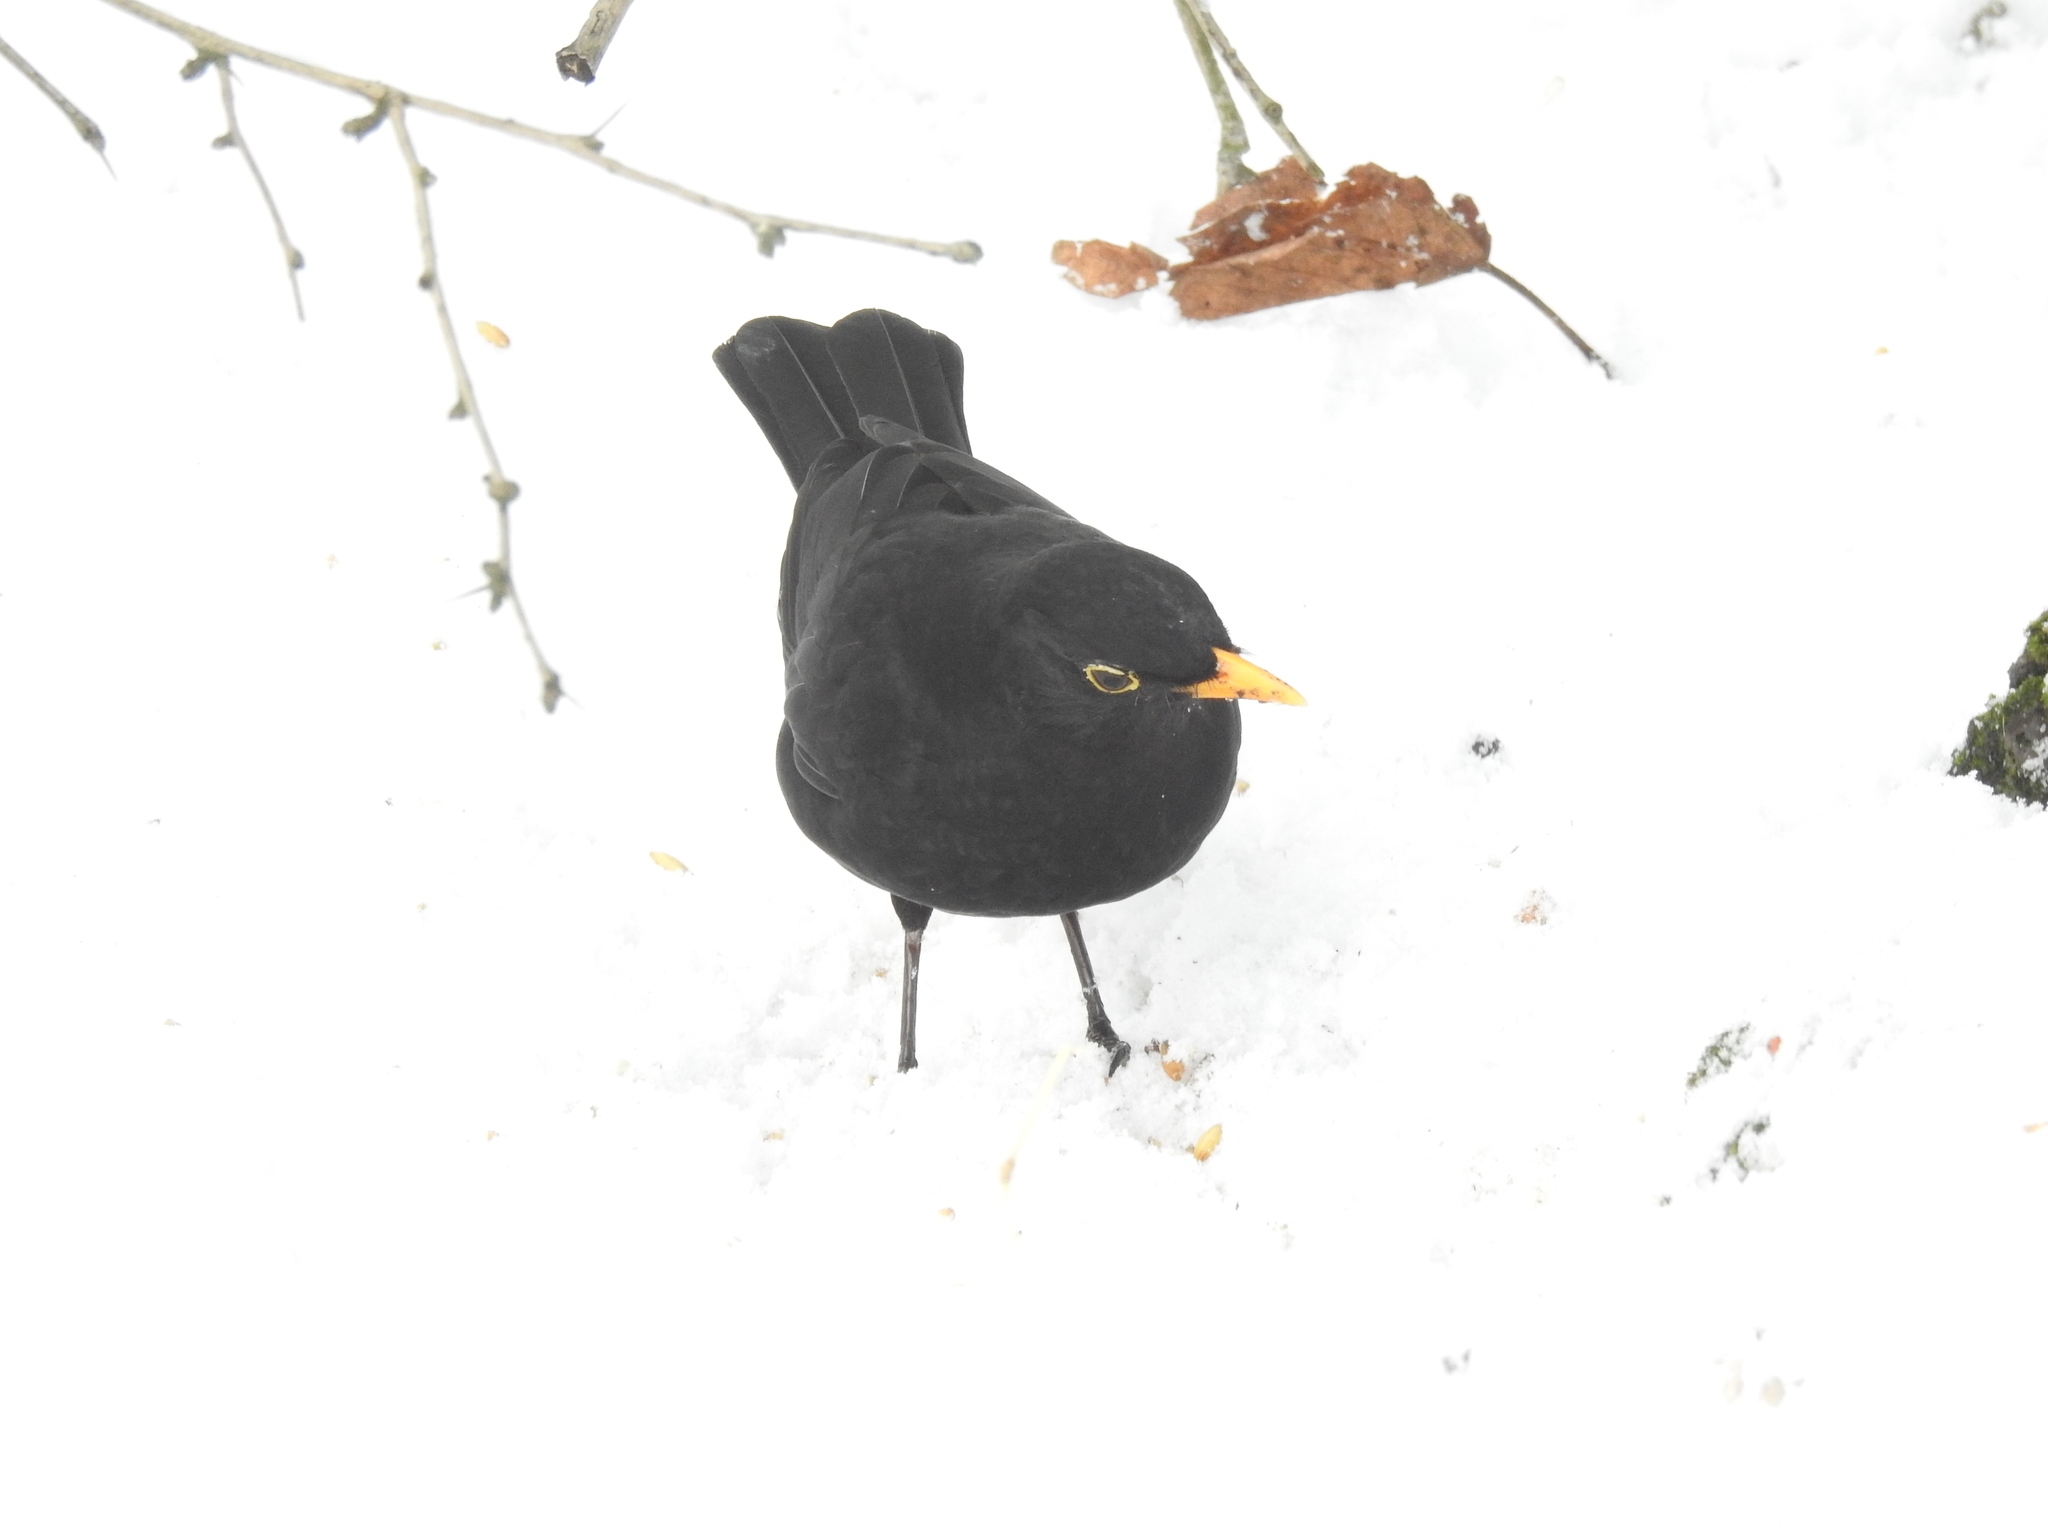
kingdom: Animalia
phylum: Chordata
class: Aves
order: Passeriformes
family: Turdidae
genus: Turdus
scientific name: Turdus merula
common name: Common blackbird
